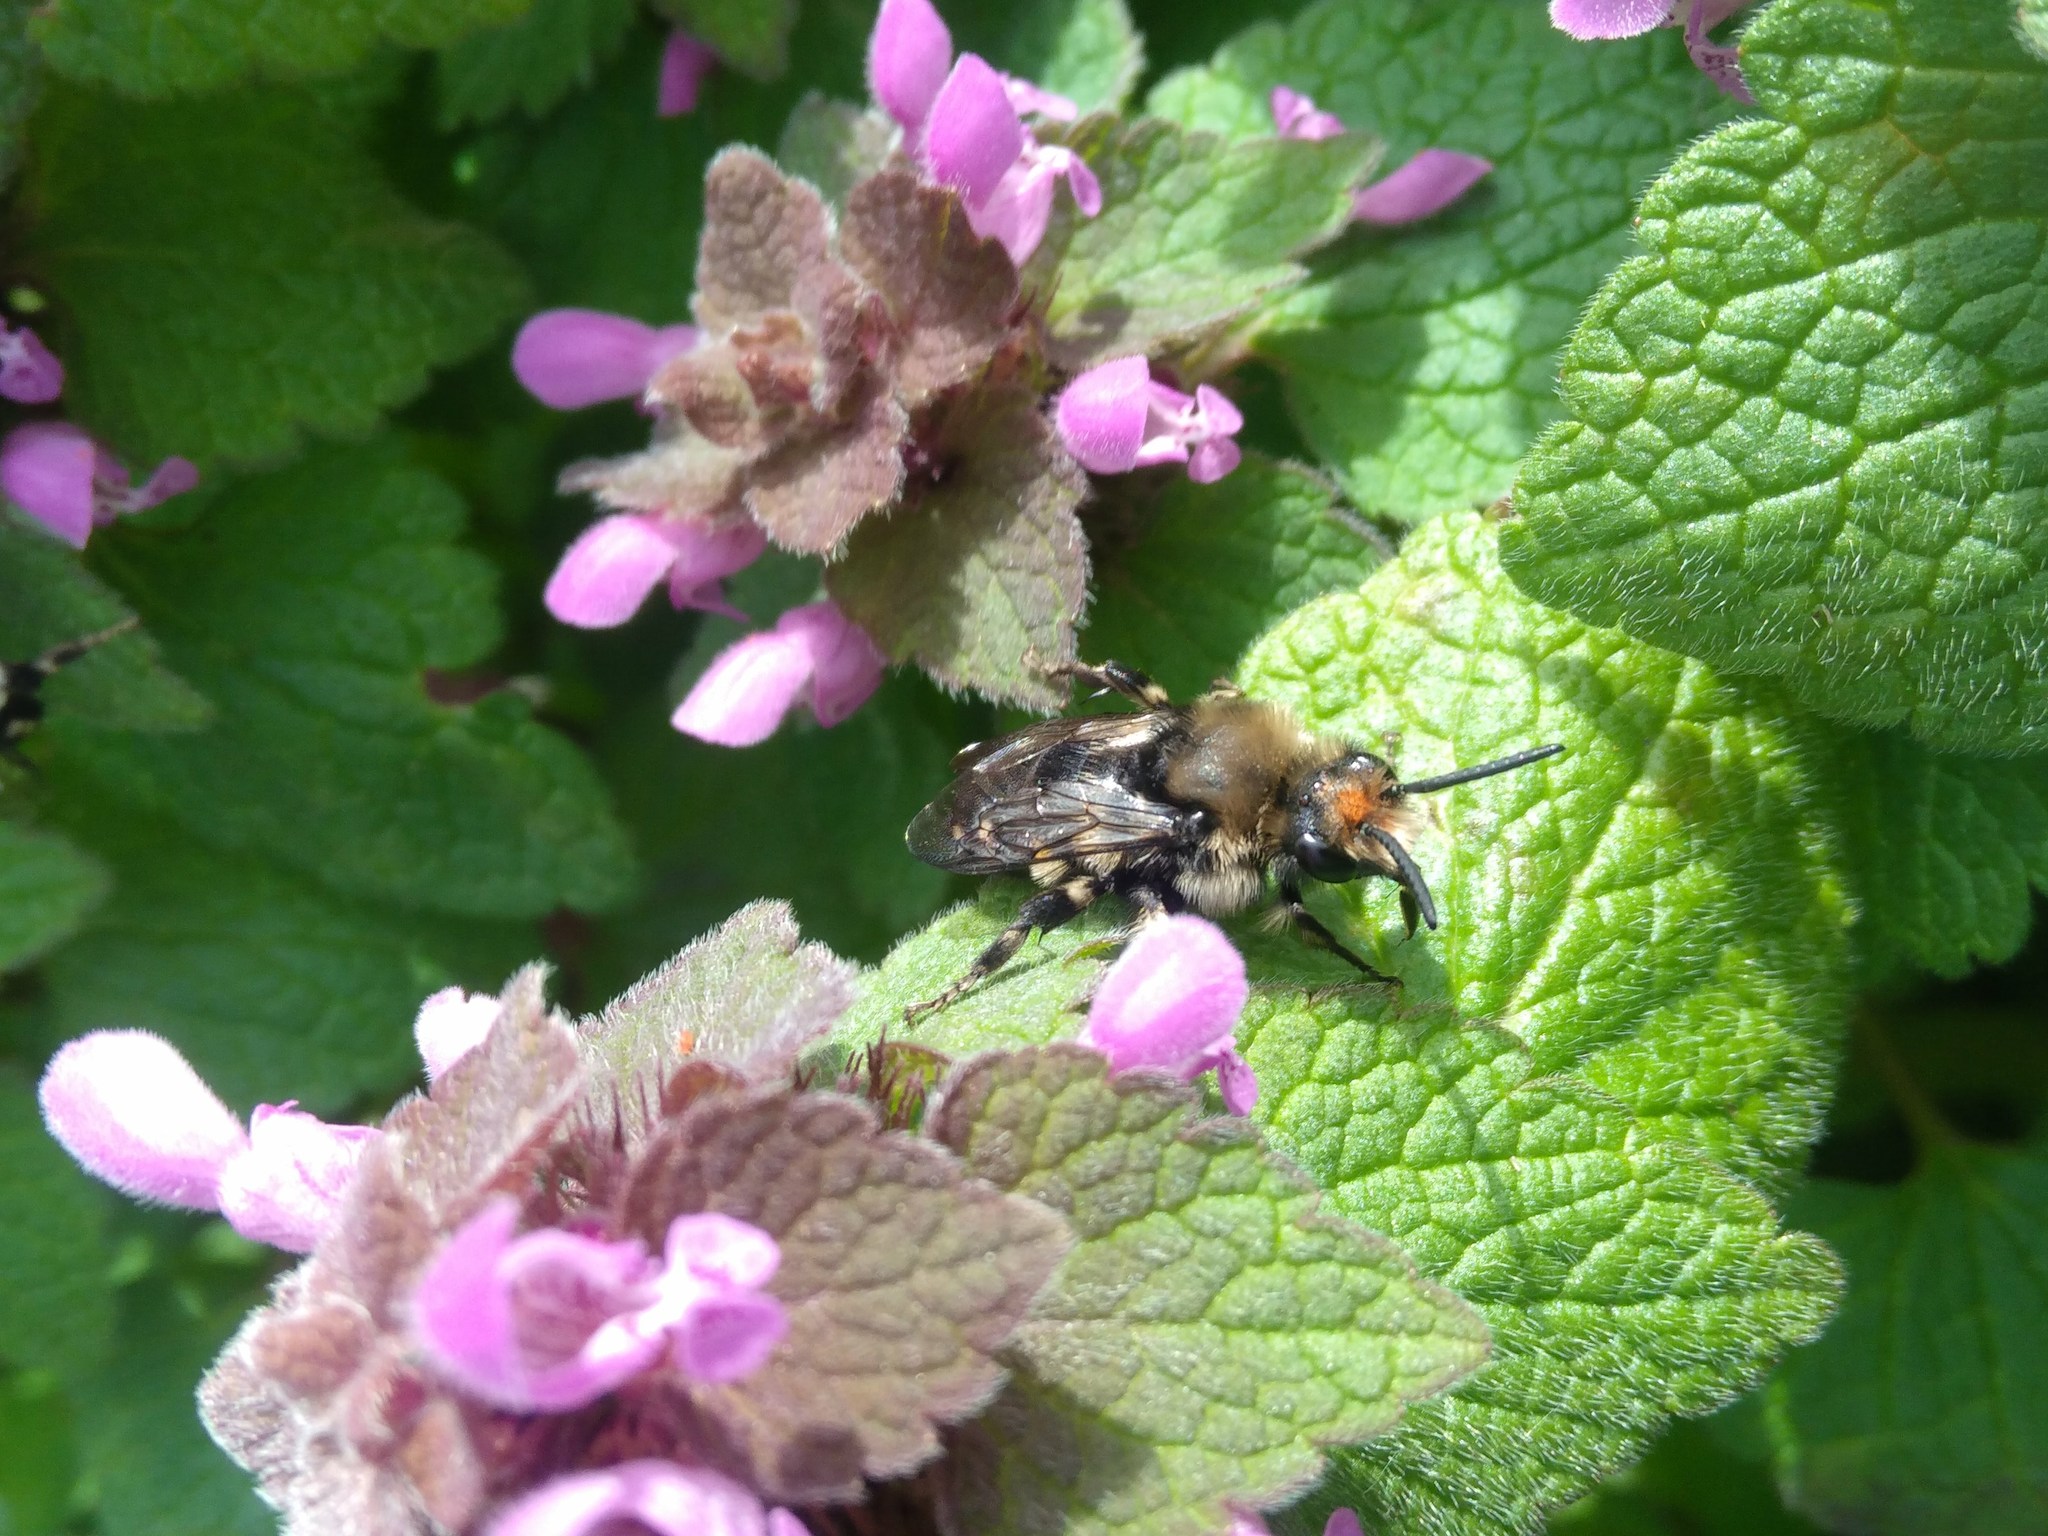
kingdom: Animalia
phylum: Arthropoda
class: Insecta
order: Hymenoptera
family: Apidae
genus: Melecta
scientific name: Melecta albifrons
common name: Common mourning bee
